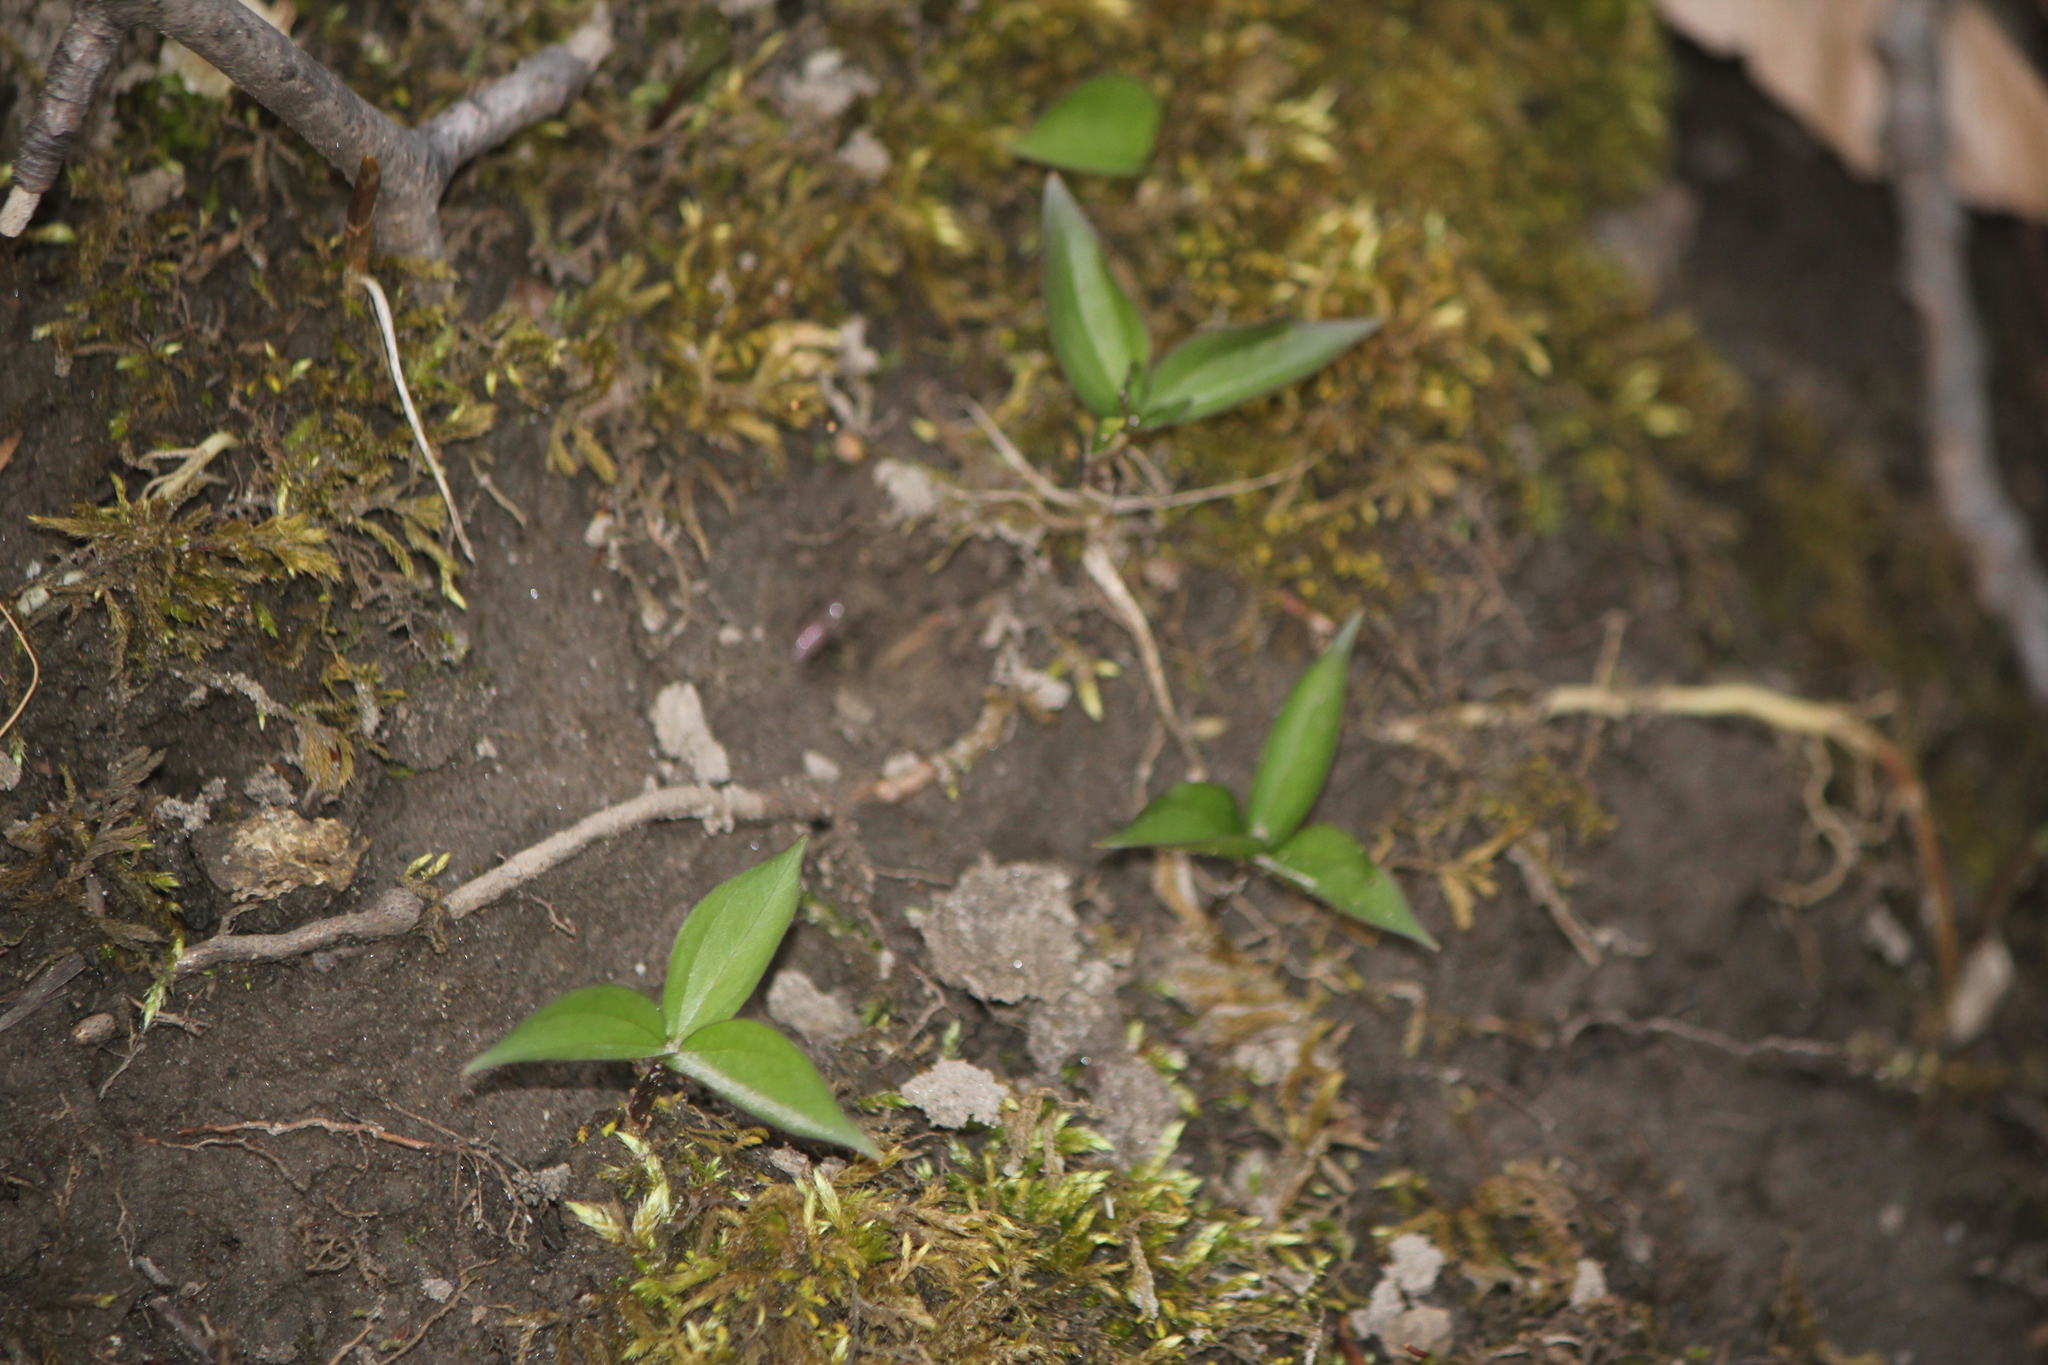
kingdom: Plantae
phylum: Tracheophyta
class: Liliopsida
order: Liliales
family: Melanthiaceae
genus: Trillium
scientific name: Trillium
